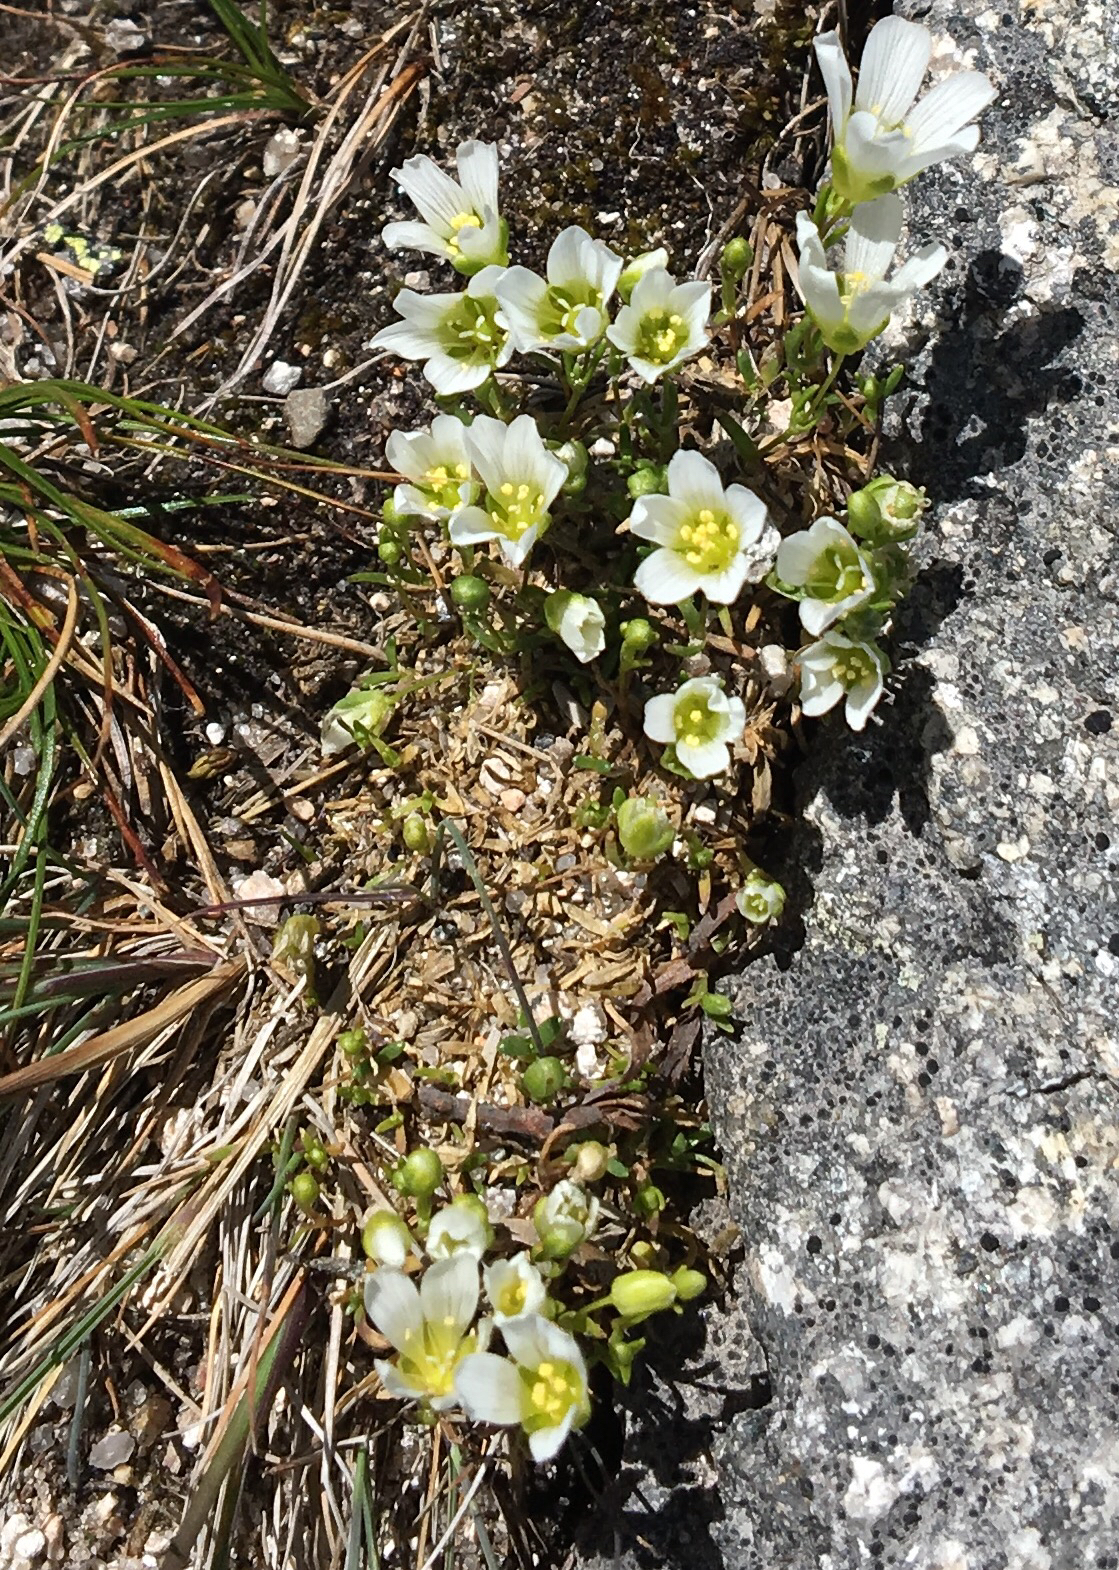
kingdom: Plantae
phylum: Tracheophyta
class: Magnoliopsida
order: Caryophyllales
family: Caryophyllaceae
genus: Geocarpon
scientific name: Geocarpon groenlandicum
